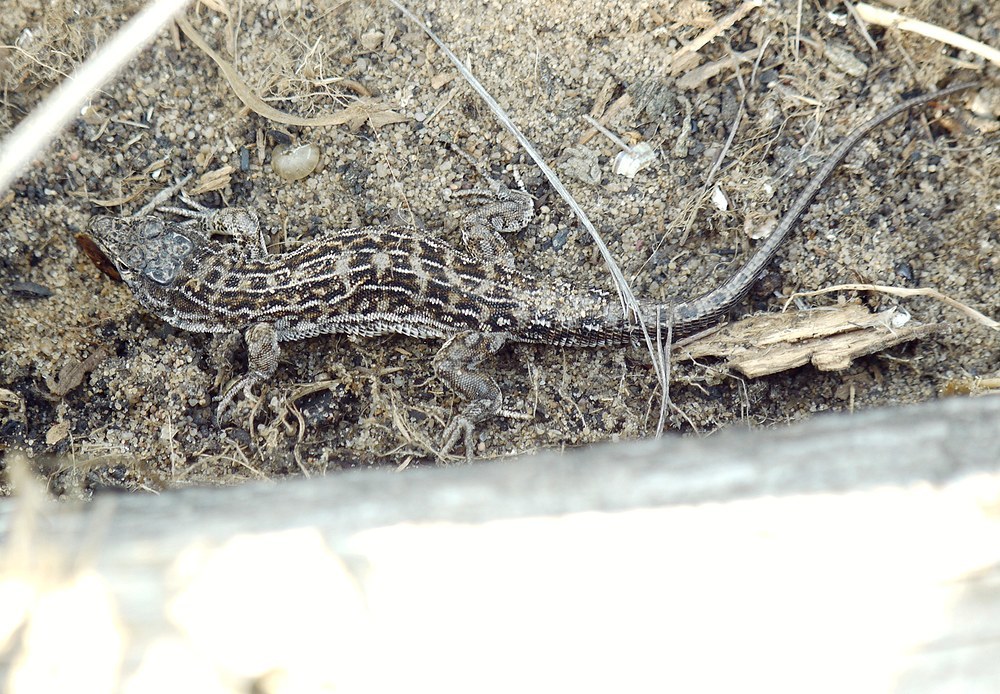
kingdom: Animalia
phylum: Chordata
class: Squamata
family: Lacertidae
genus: Eremias
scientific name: Eremias arguta
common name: Racerunner
